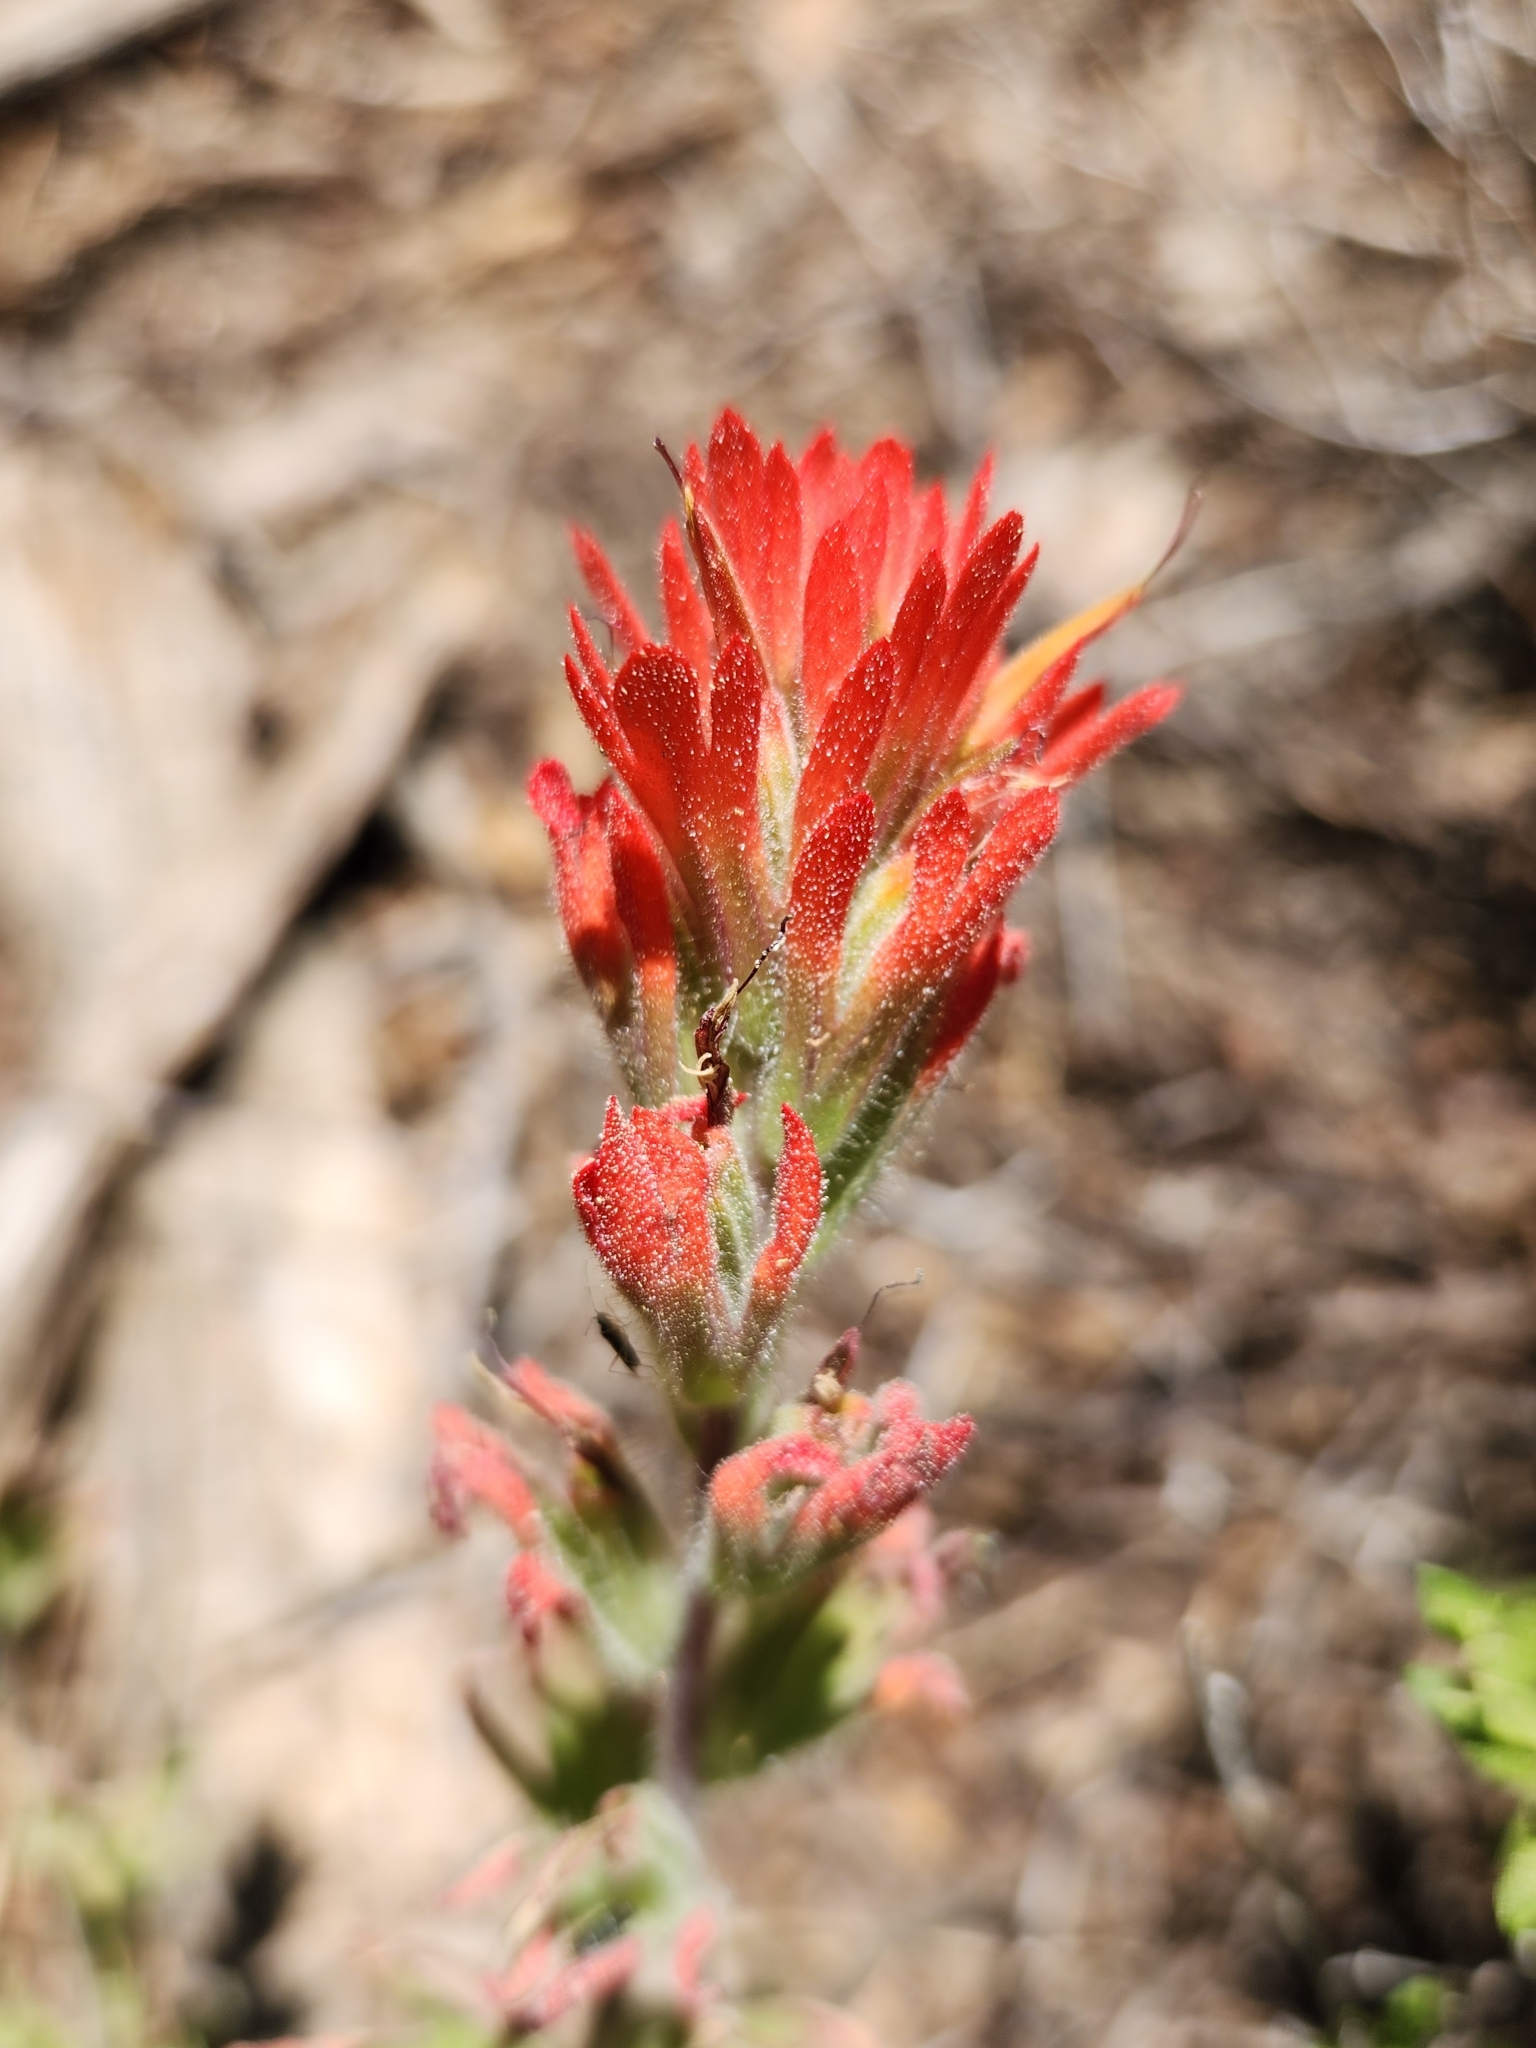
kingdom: Plantae
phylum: Tracheophyta
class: Magnoliopsida
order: Lamiales
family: Orobanchaceae
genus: Castilleja
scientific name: Castilleja martini
